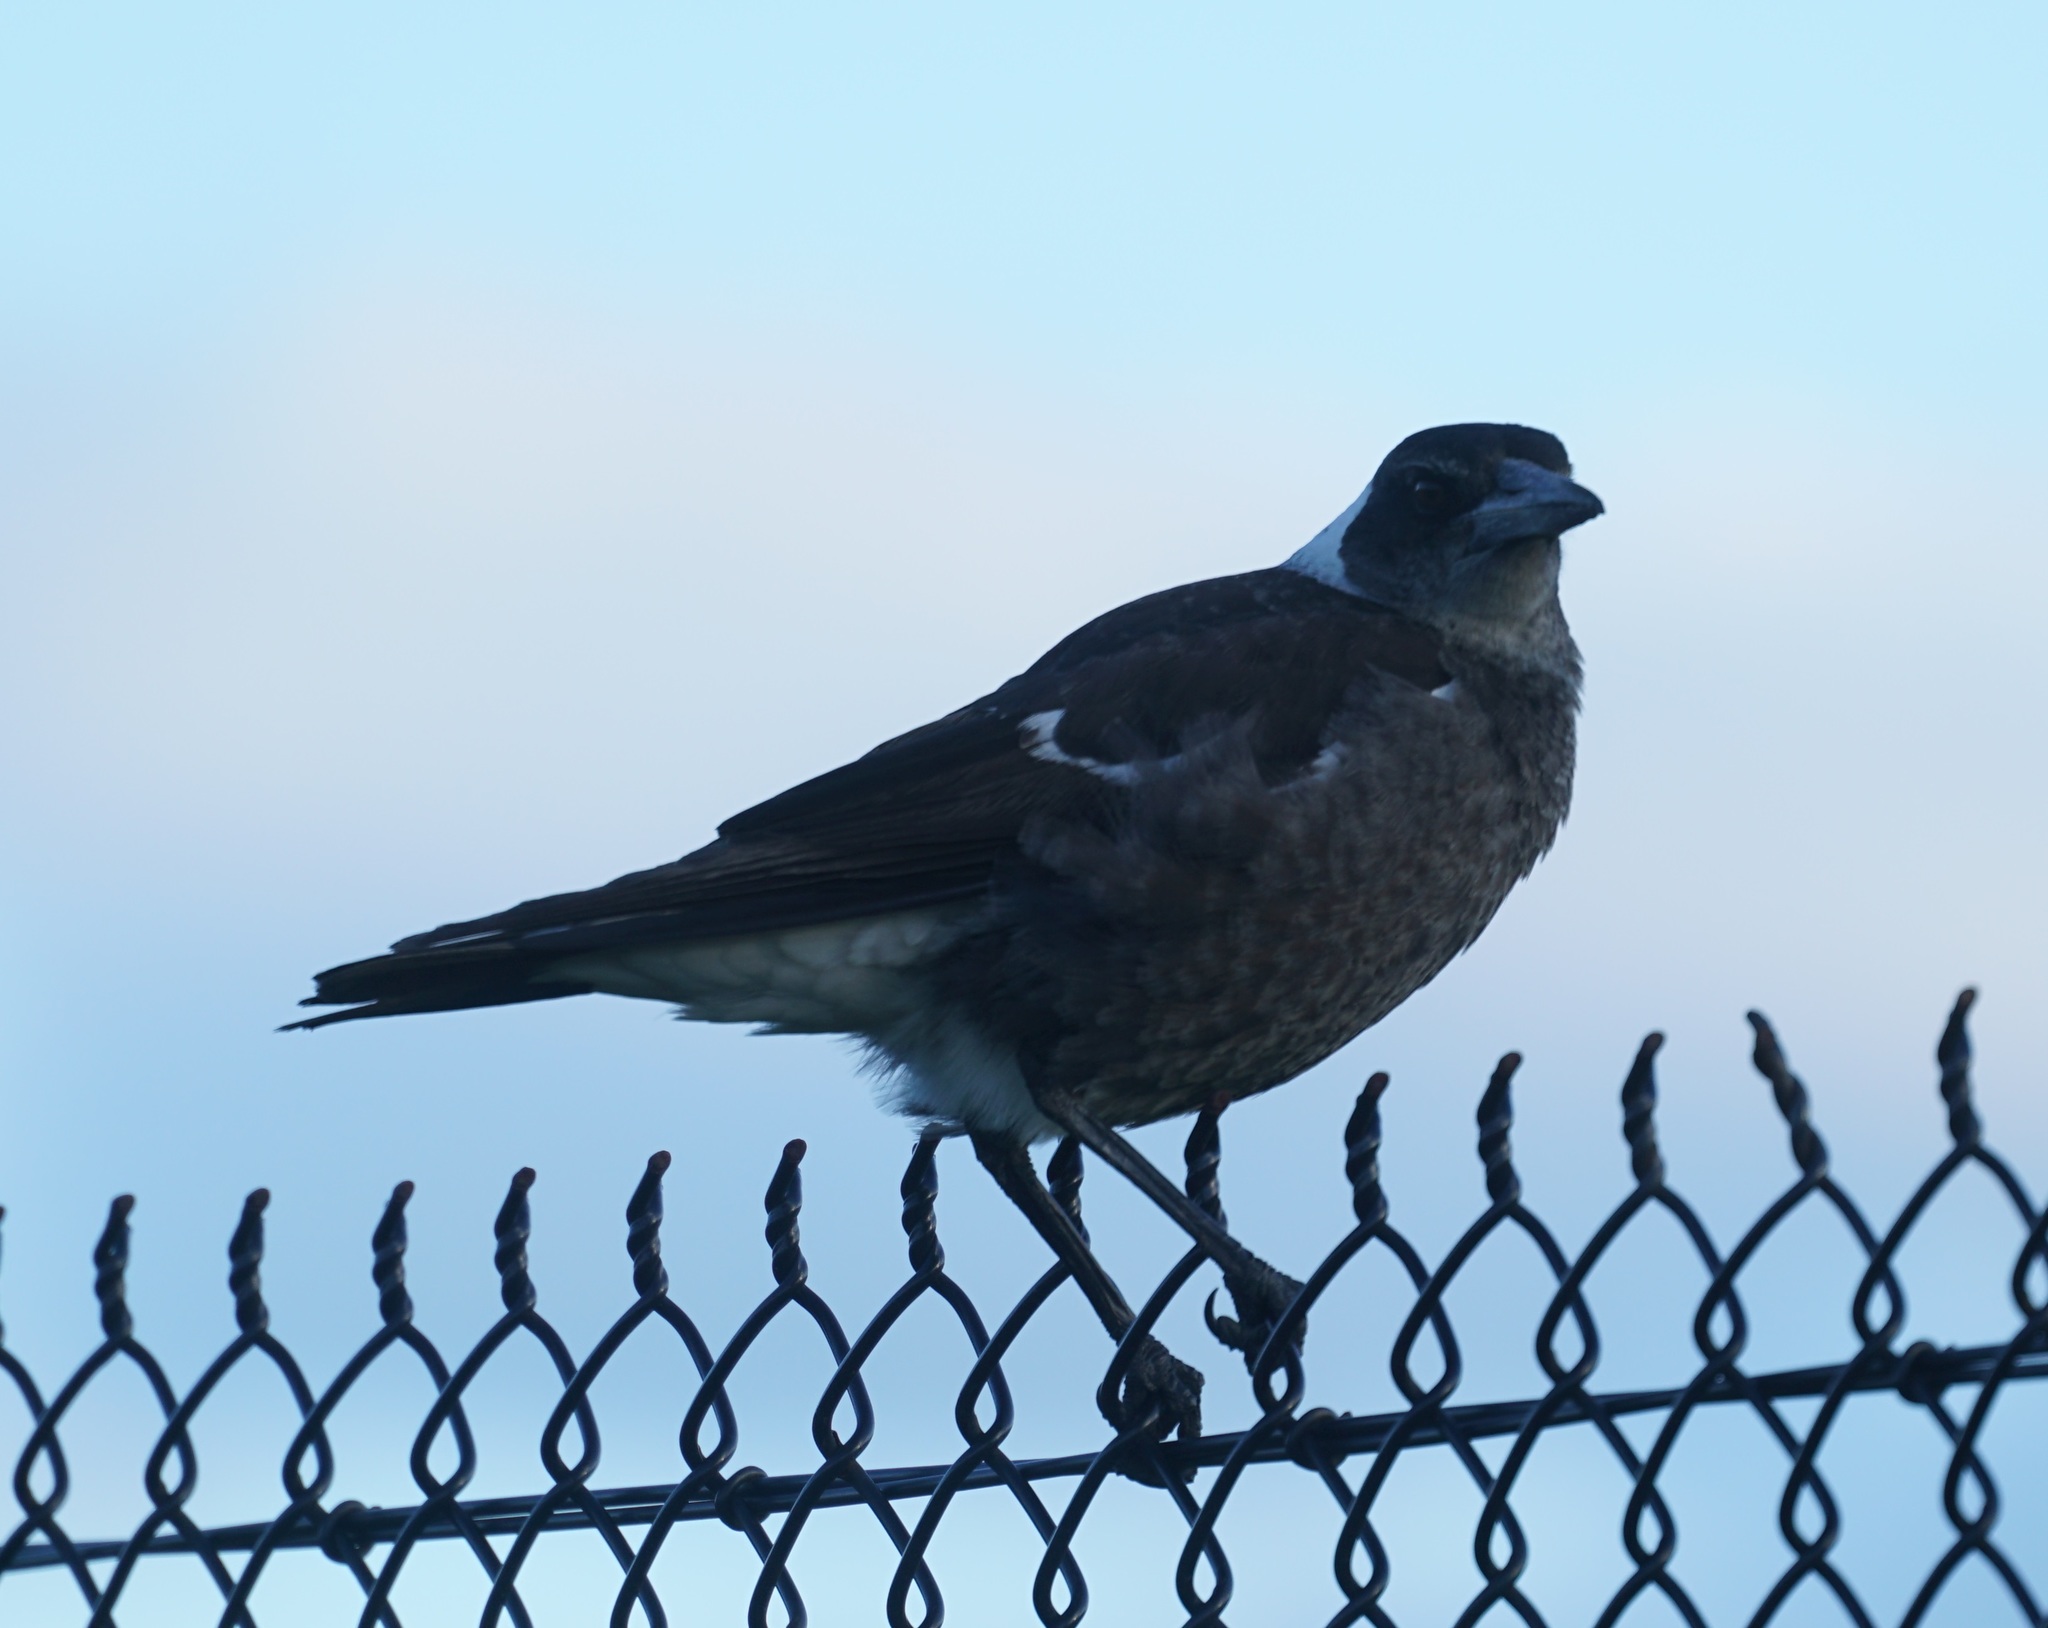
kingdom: Animalia
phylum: Chordata
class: Aves
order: Passeriformes
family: Cracticidae
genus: Gymnorhina
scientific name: Gymnorhina tibicen
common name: Australian magpie
